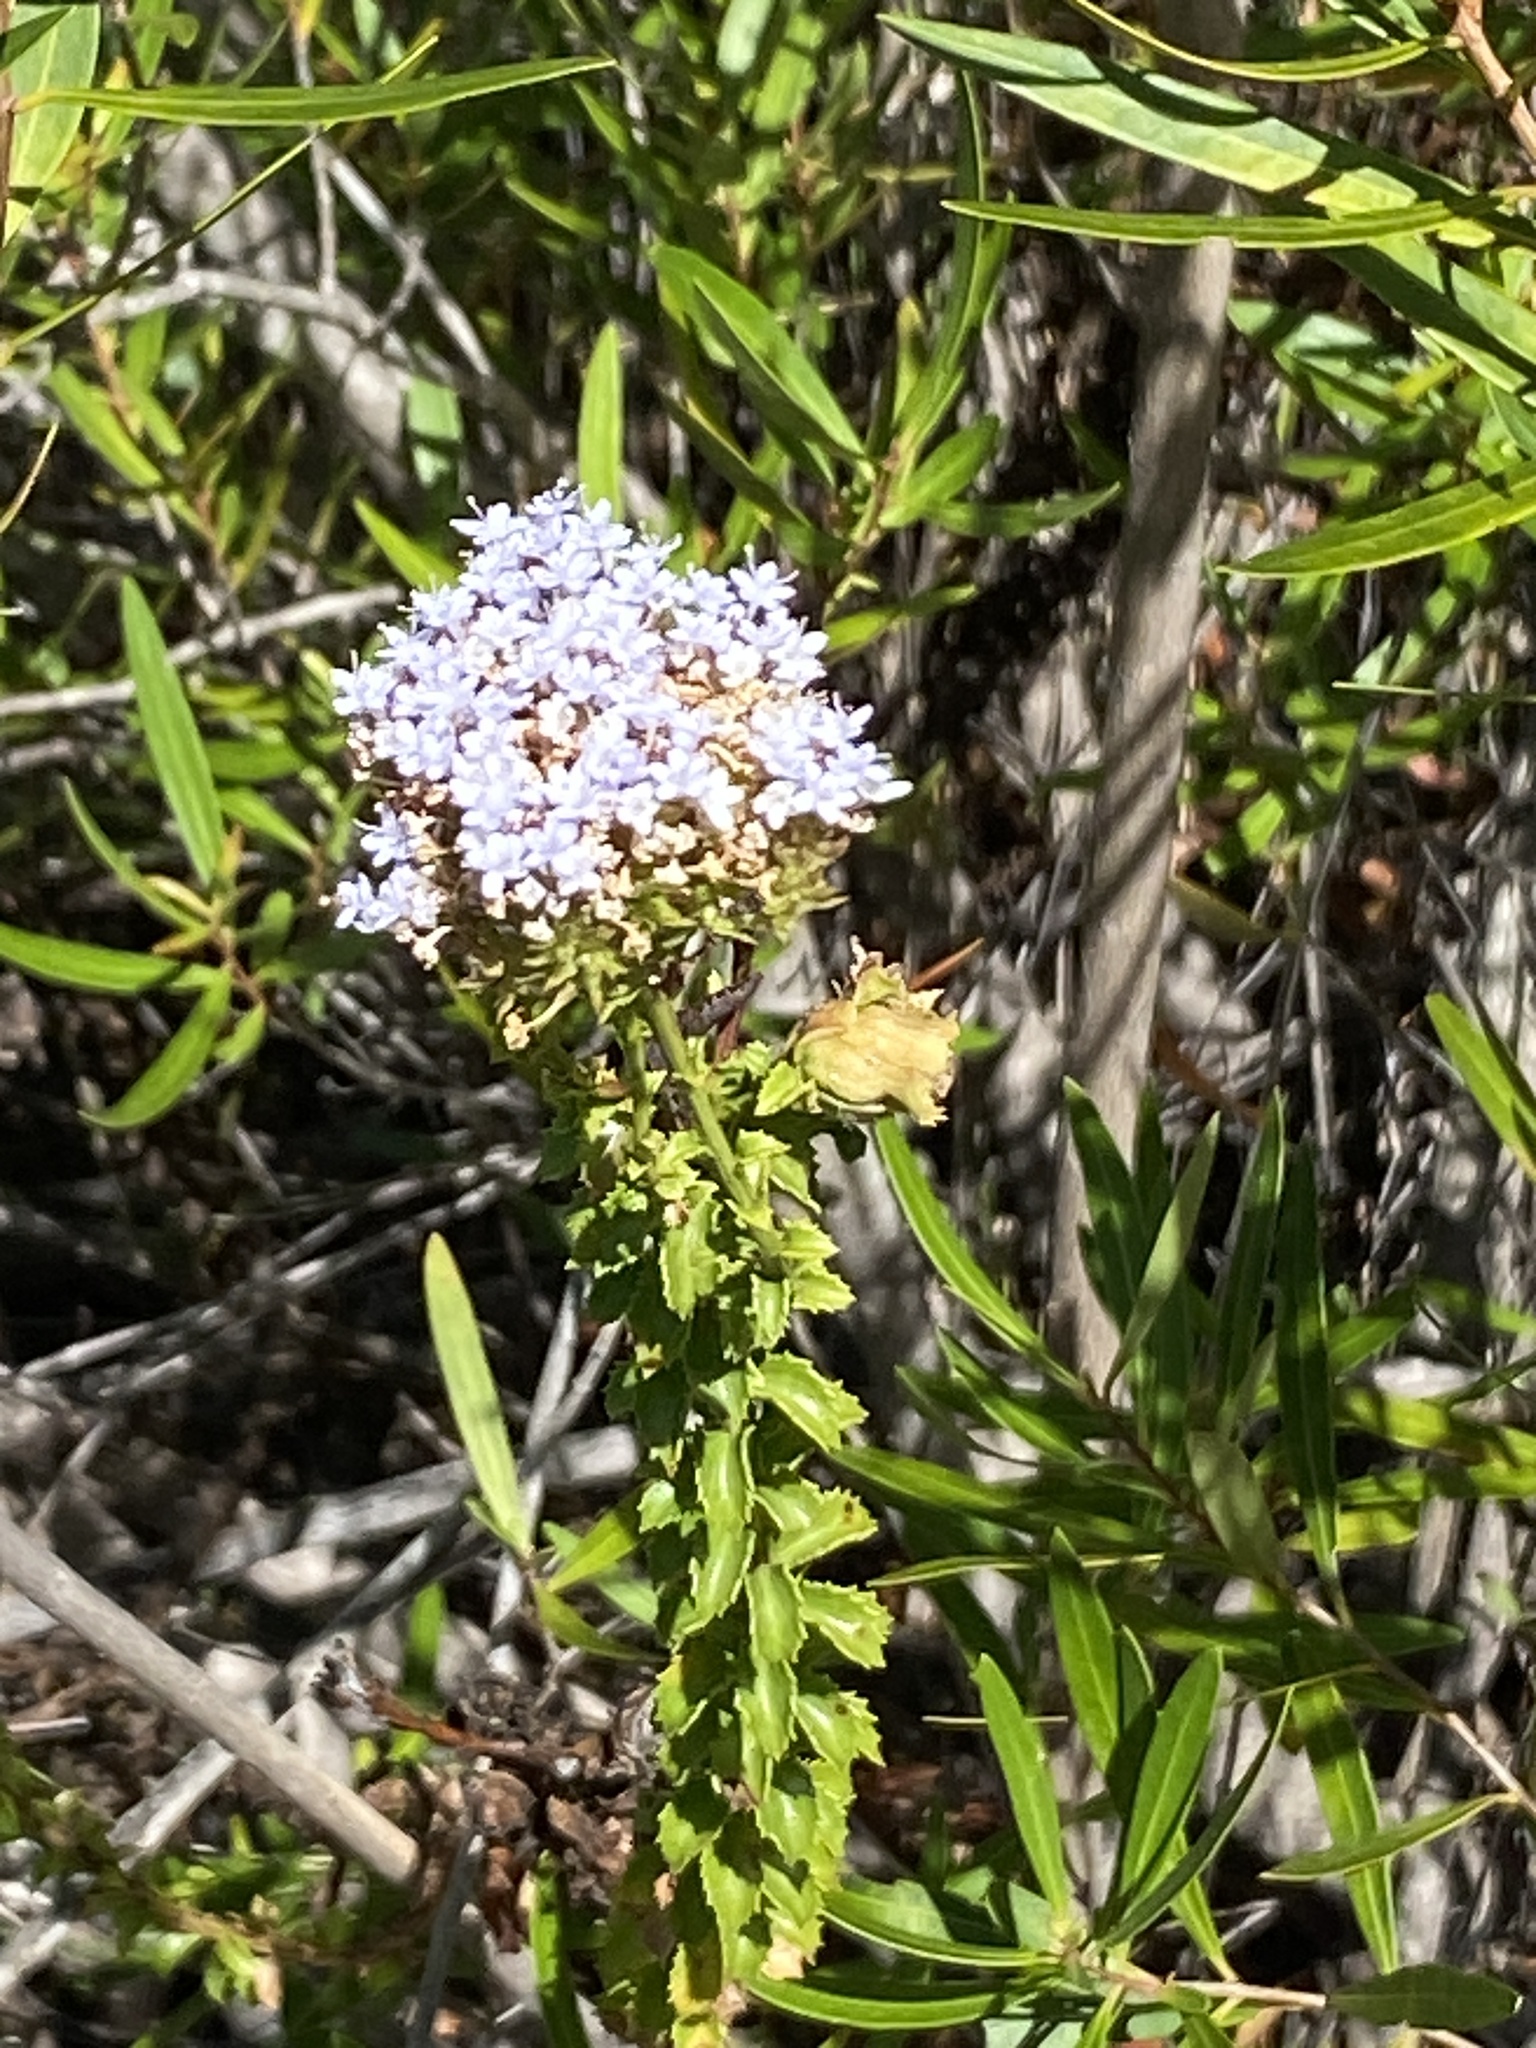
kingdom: Plantae
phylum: Tracheophyta
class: Magnoliopsida
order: Lamiales
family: Scrophulariaceae
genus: Pseudoselago
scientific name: Pseudoselago recurvifolia
